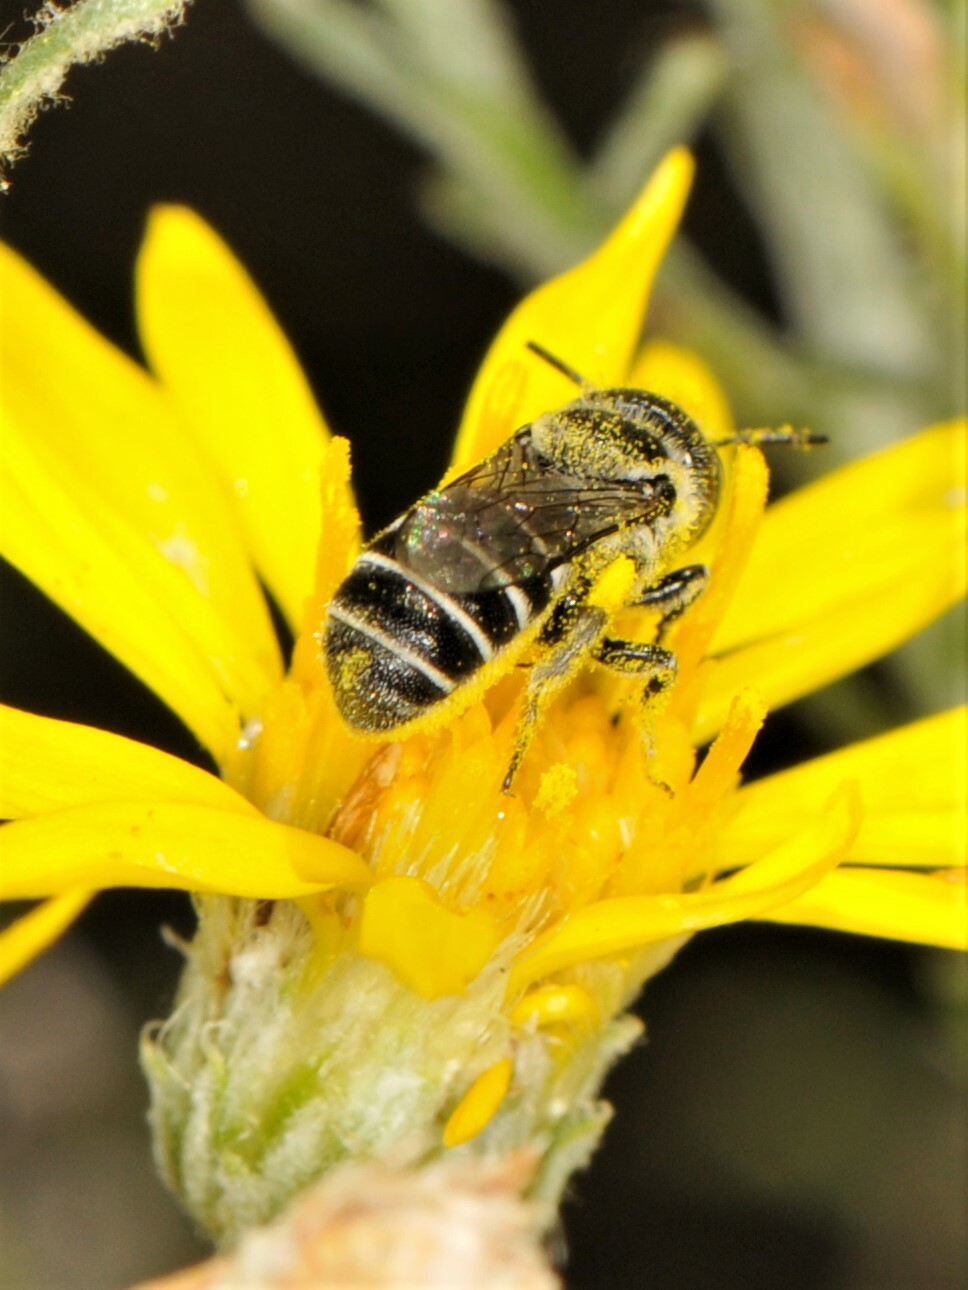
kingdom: Animalia
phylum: Arthropoda
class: Insecta
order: Hymenoptera
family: Megachilidae
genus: Ashmeadiella
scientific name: Ashmeadiella
